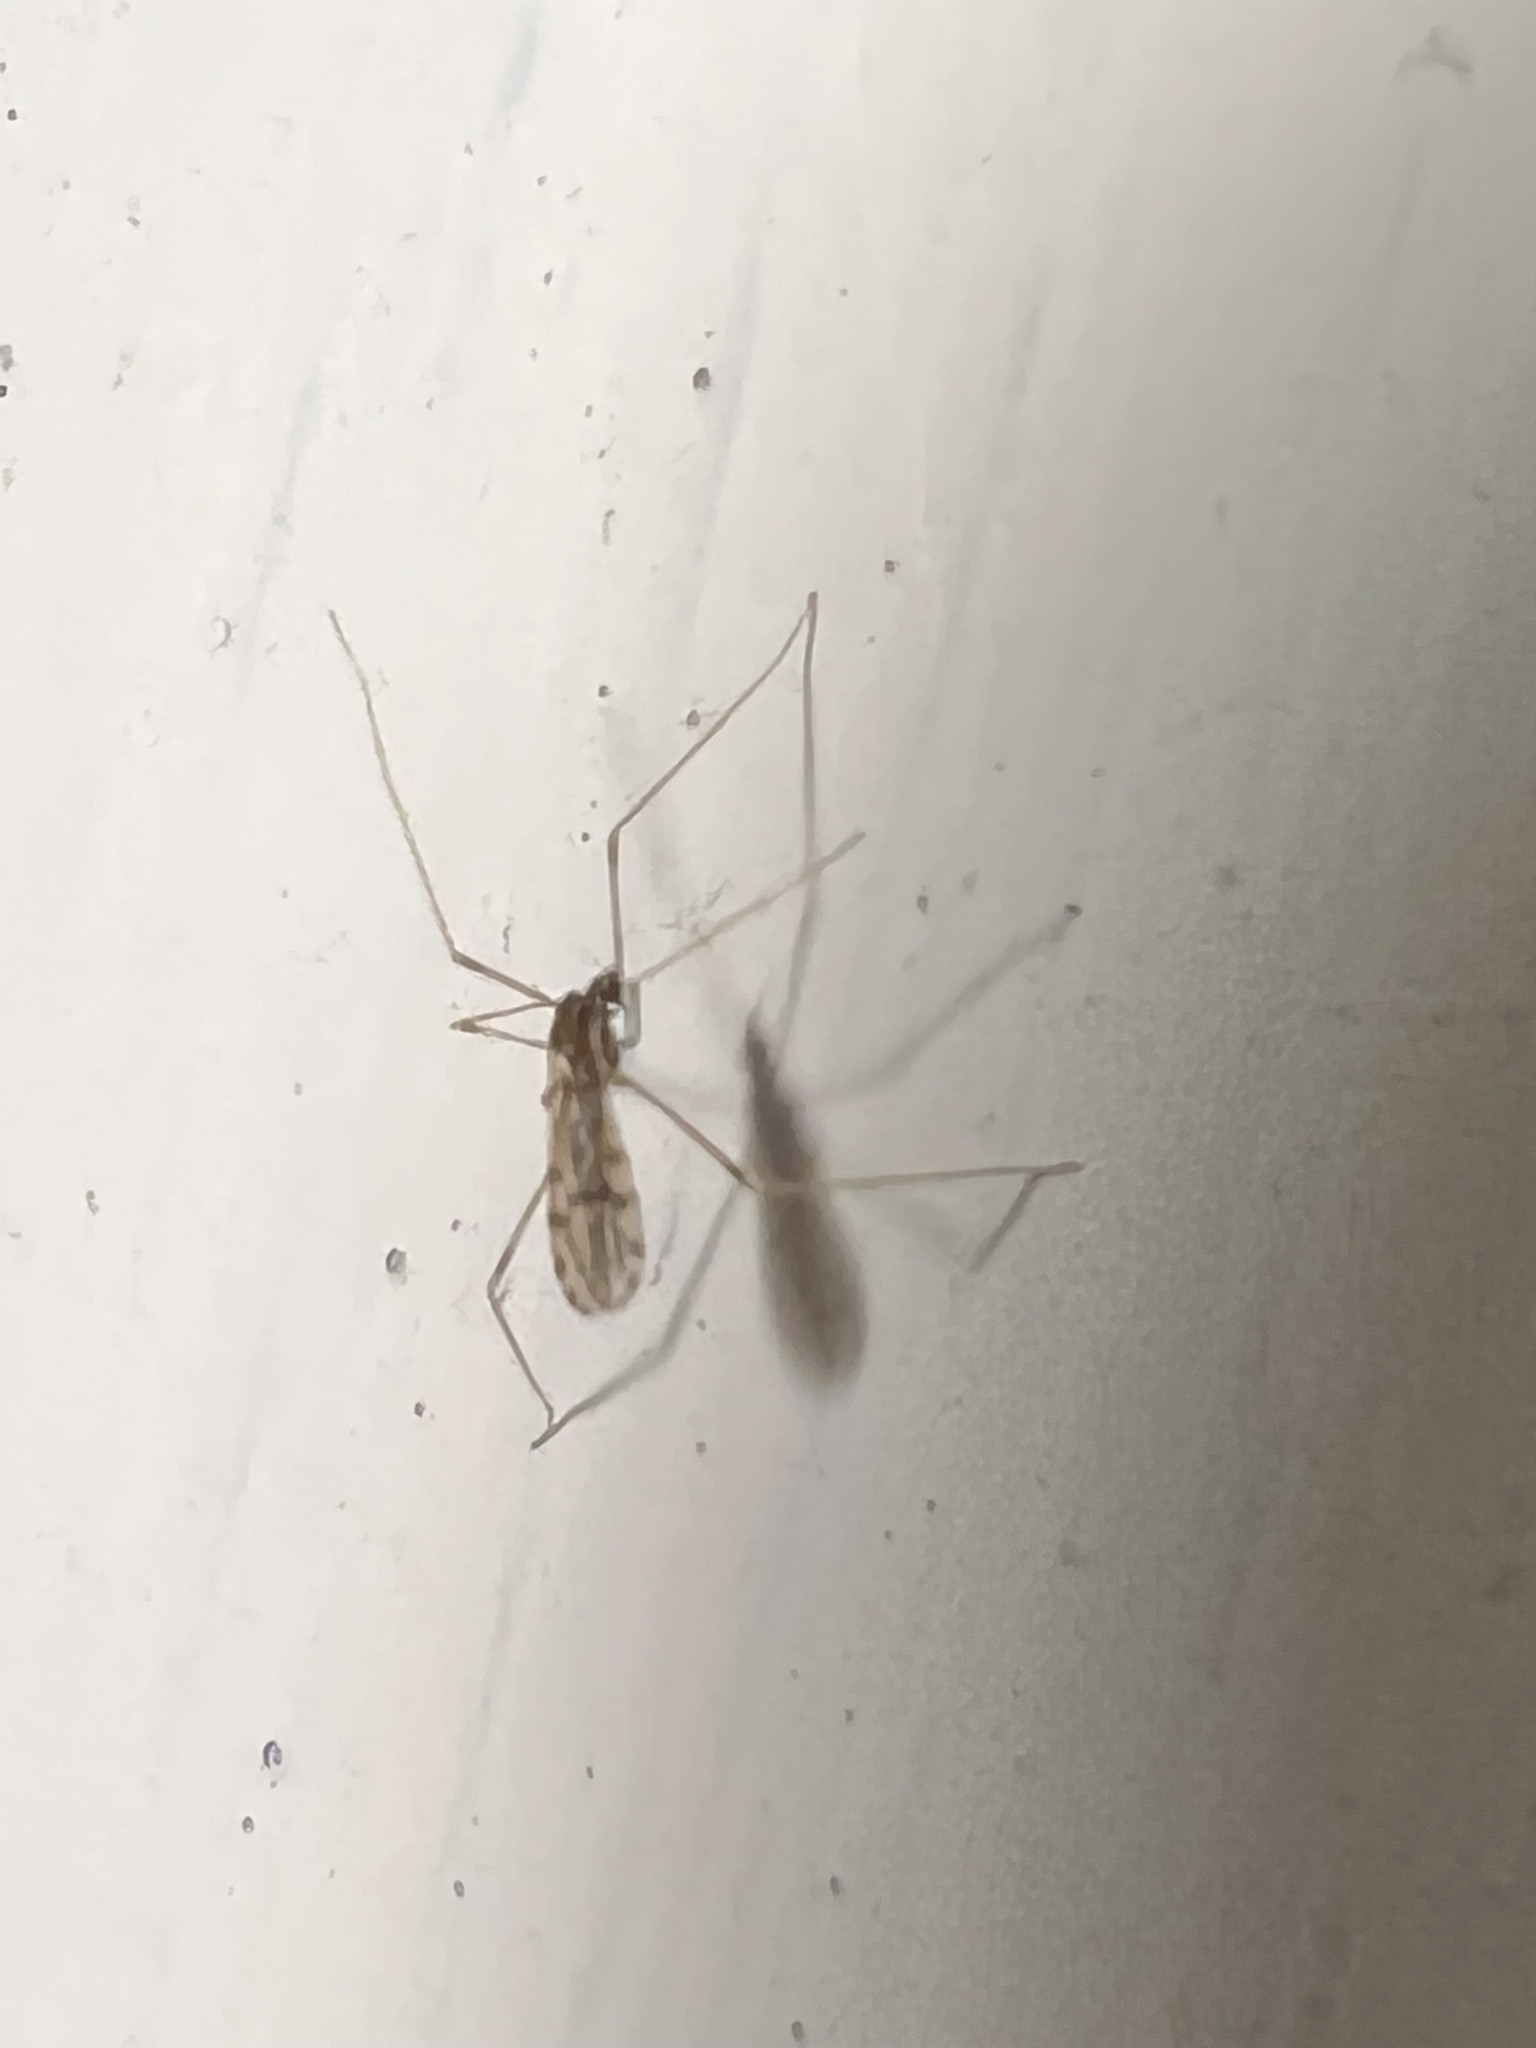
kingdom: Animalia
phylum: Arthropoda
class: Insecta
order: Diptera
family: Limoniidae
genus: Erioptera
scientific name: Erioptera parva
